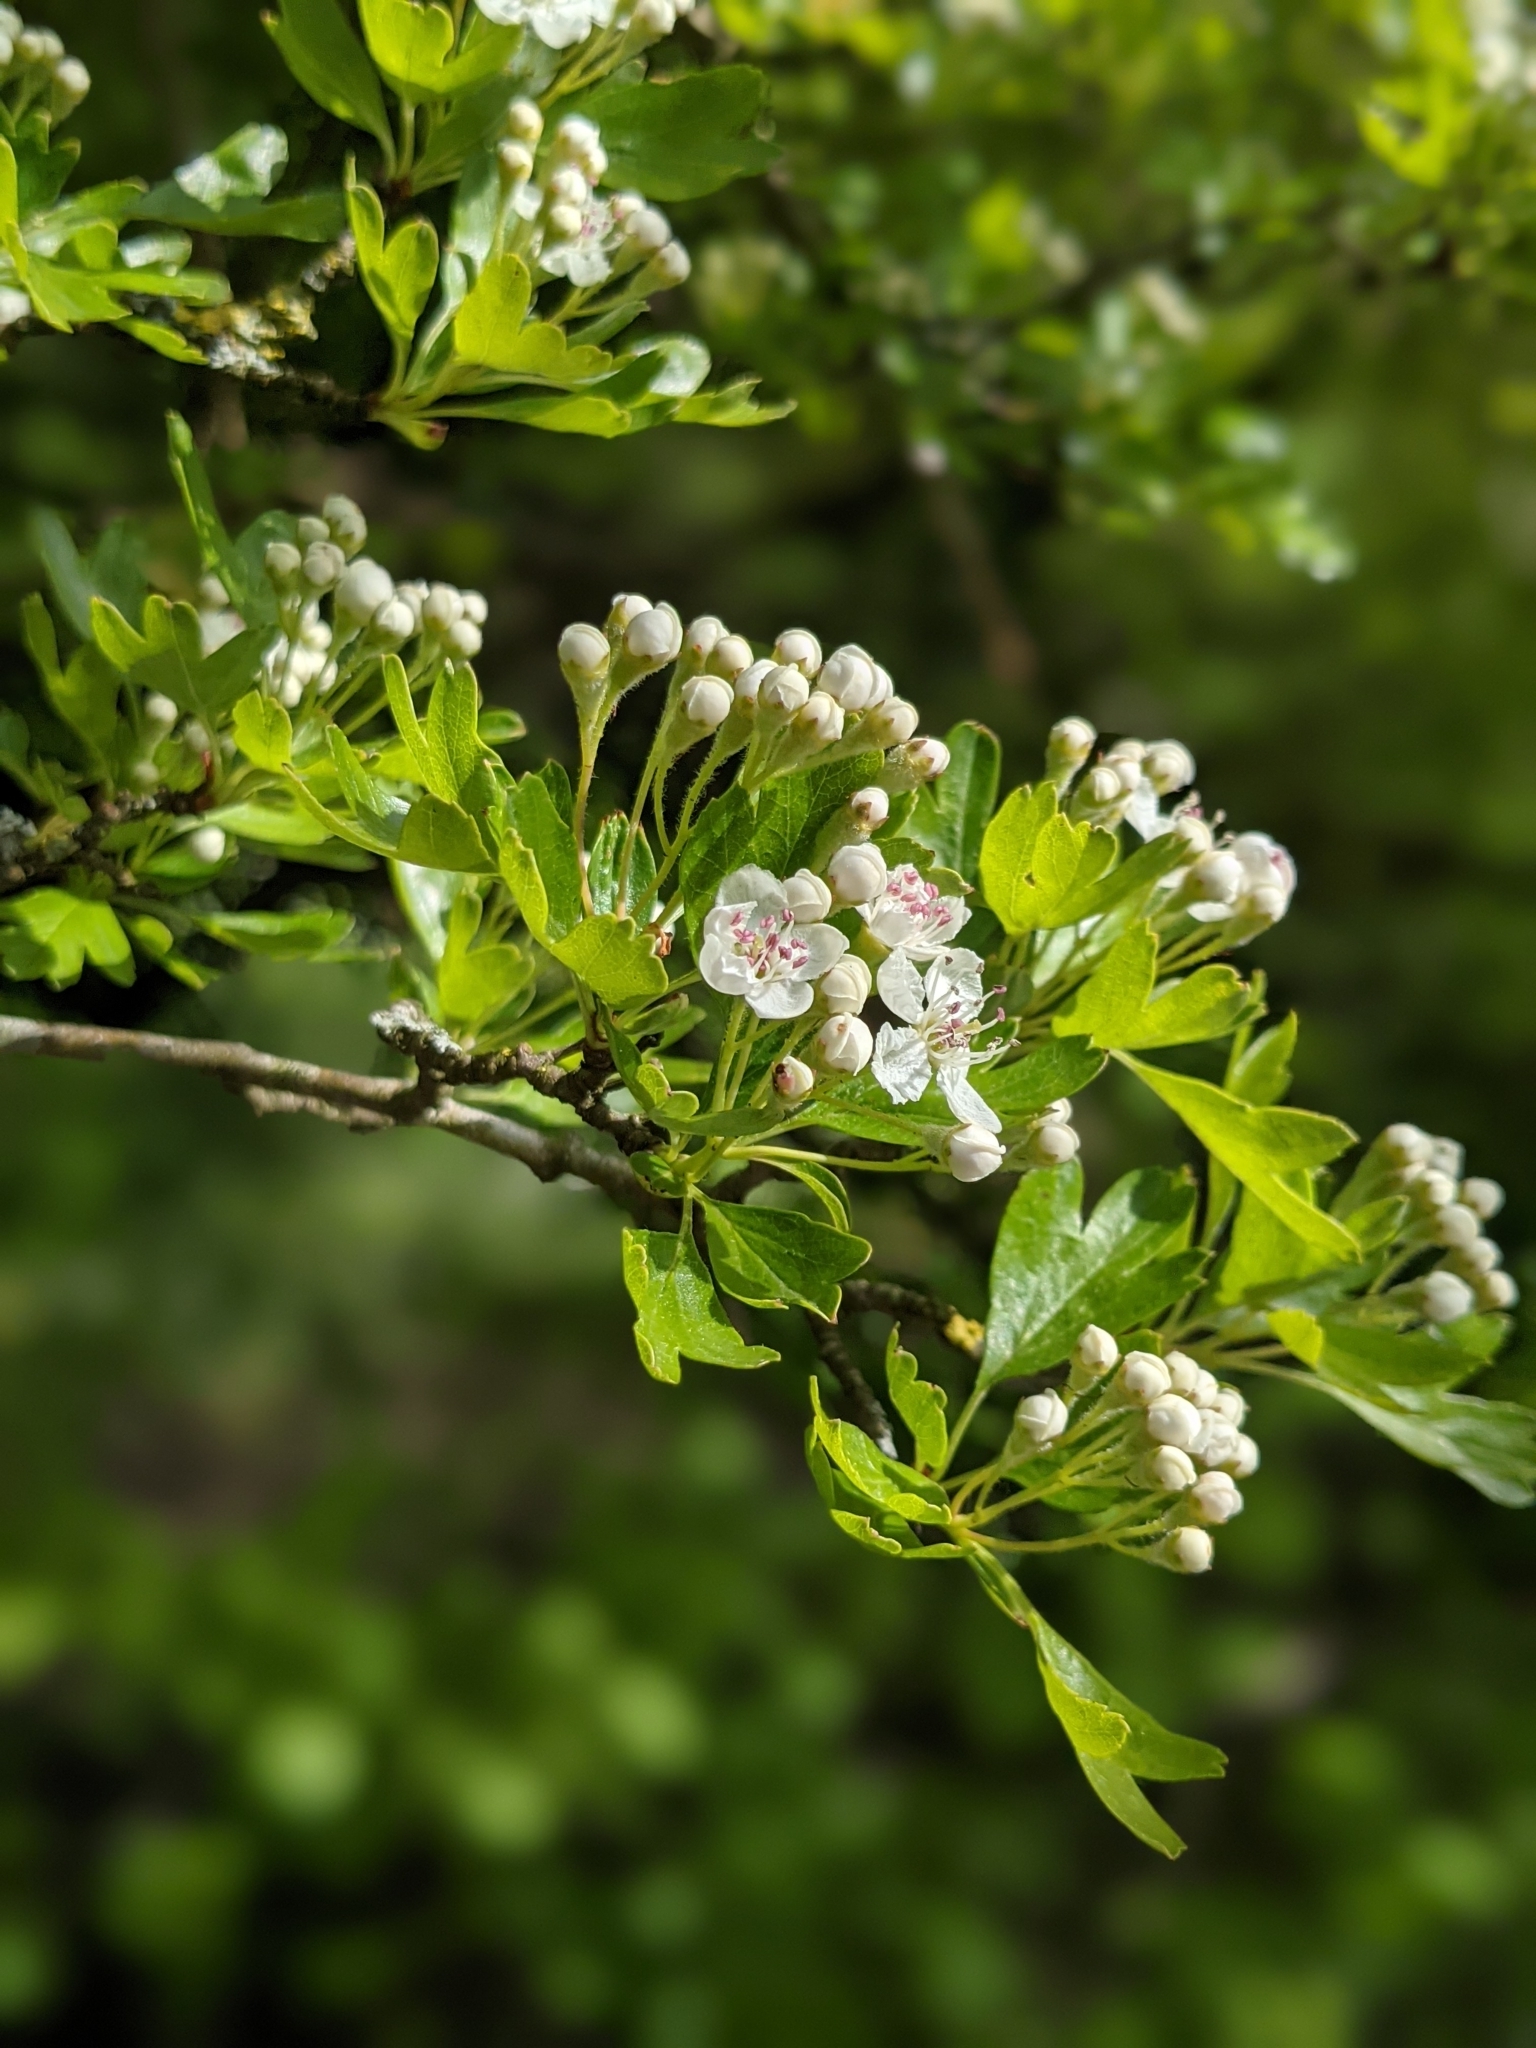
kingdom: Plantae
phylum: Tracheophyta
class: Magnoliopsida
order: Rosales
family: Rosaceae
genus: Crataegus
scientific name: Crataegus monogyna
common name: Hawthorn
